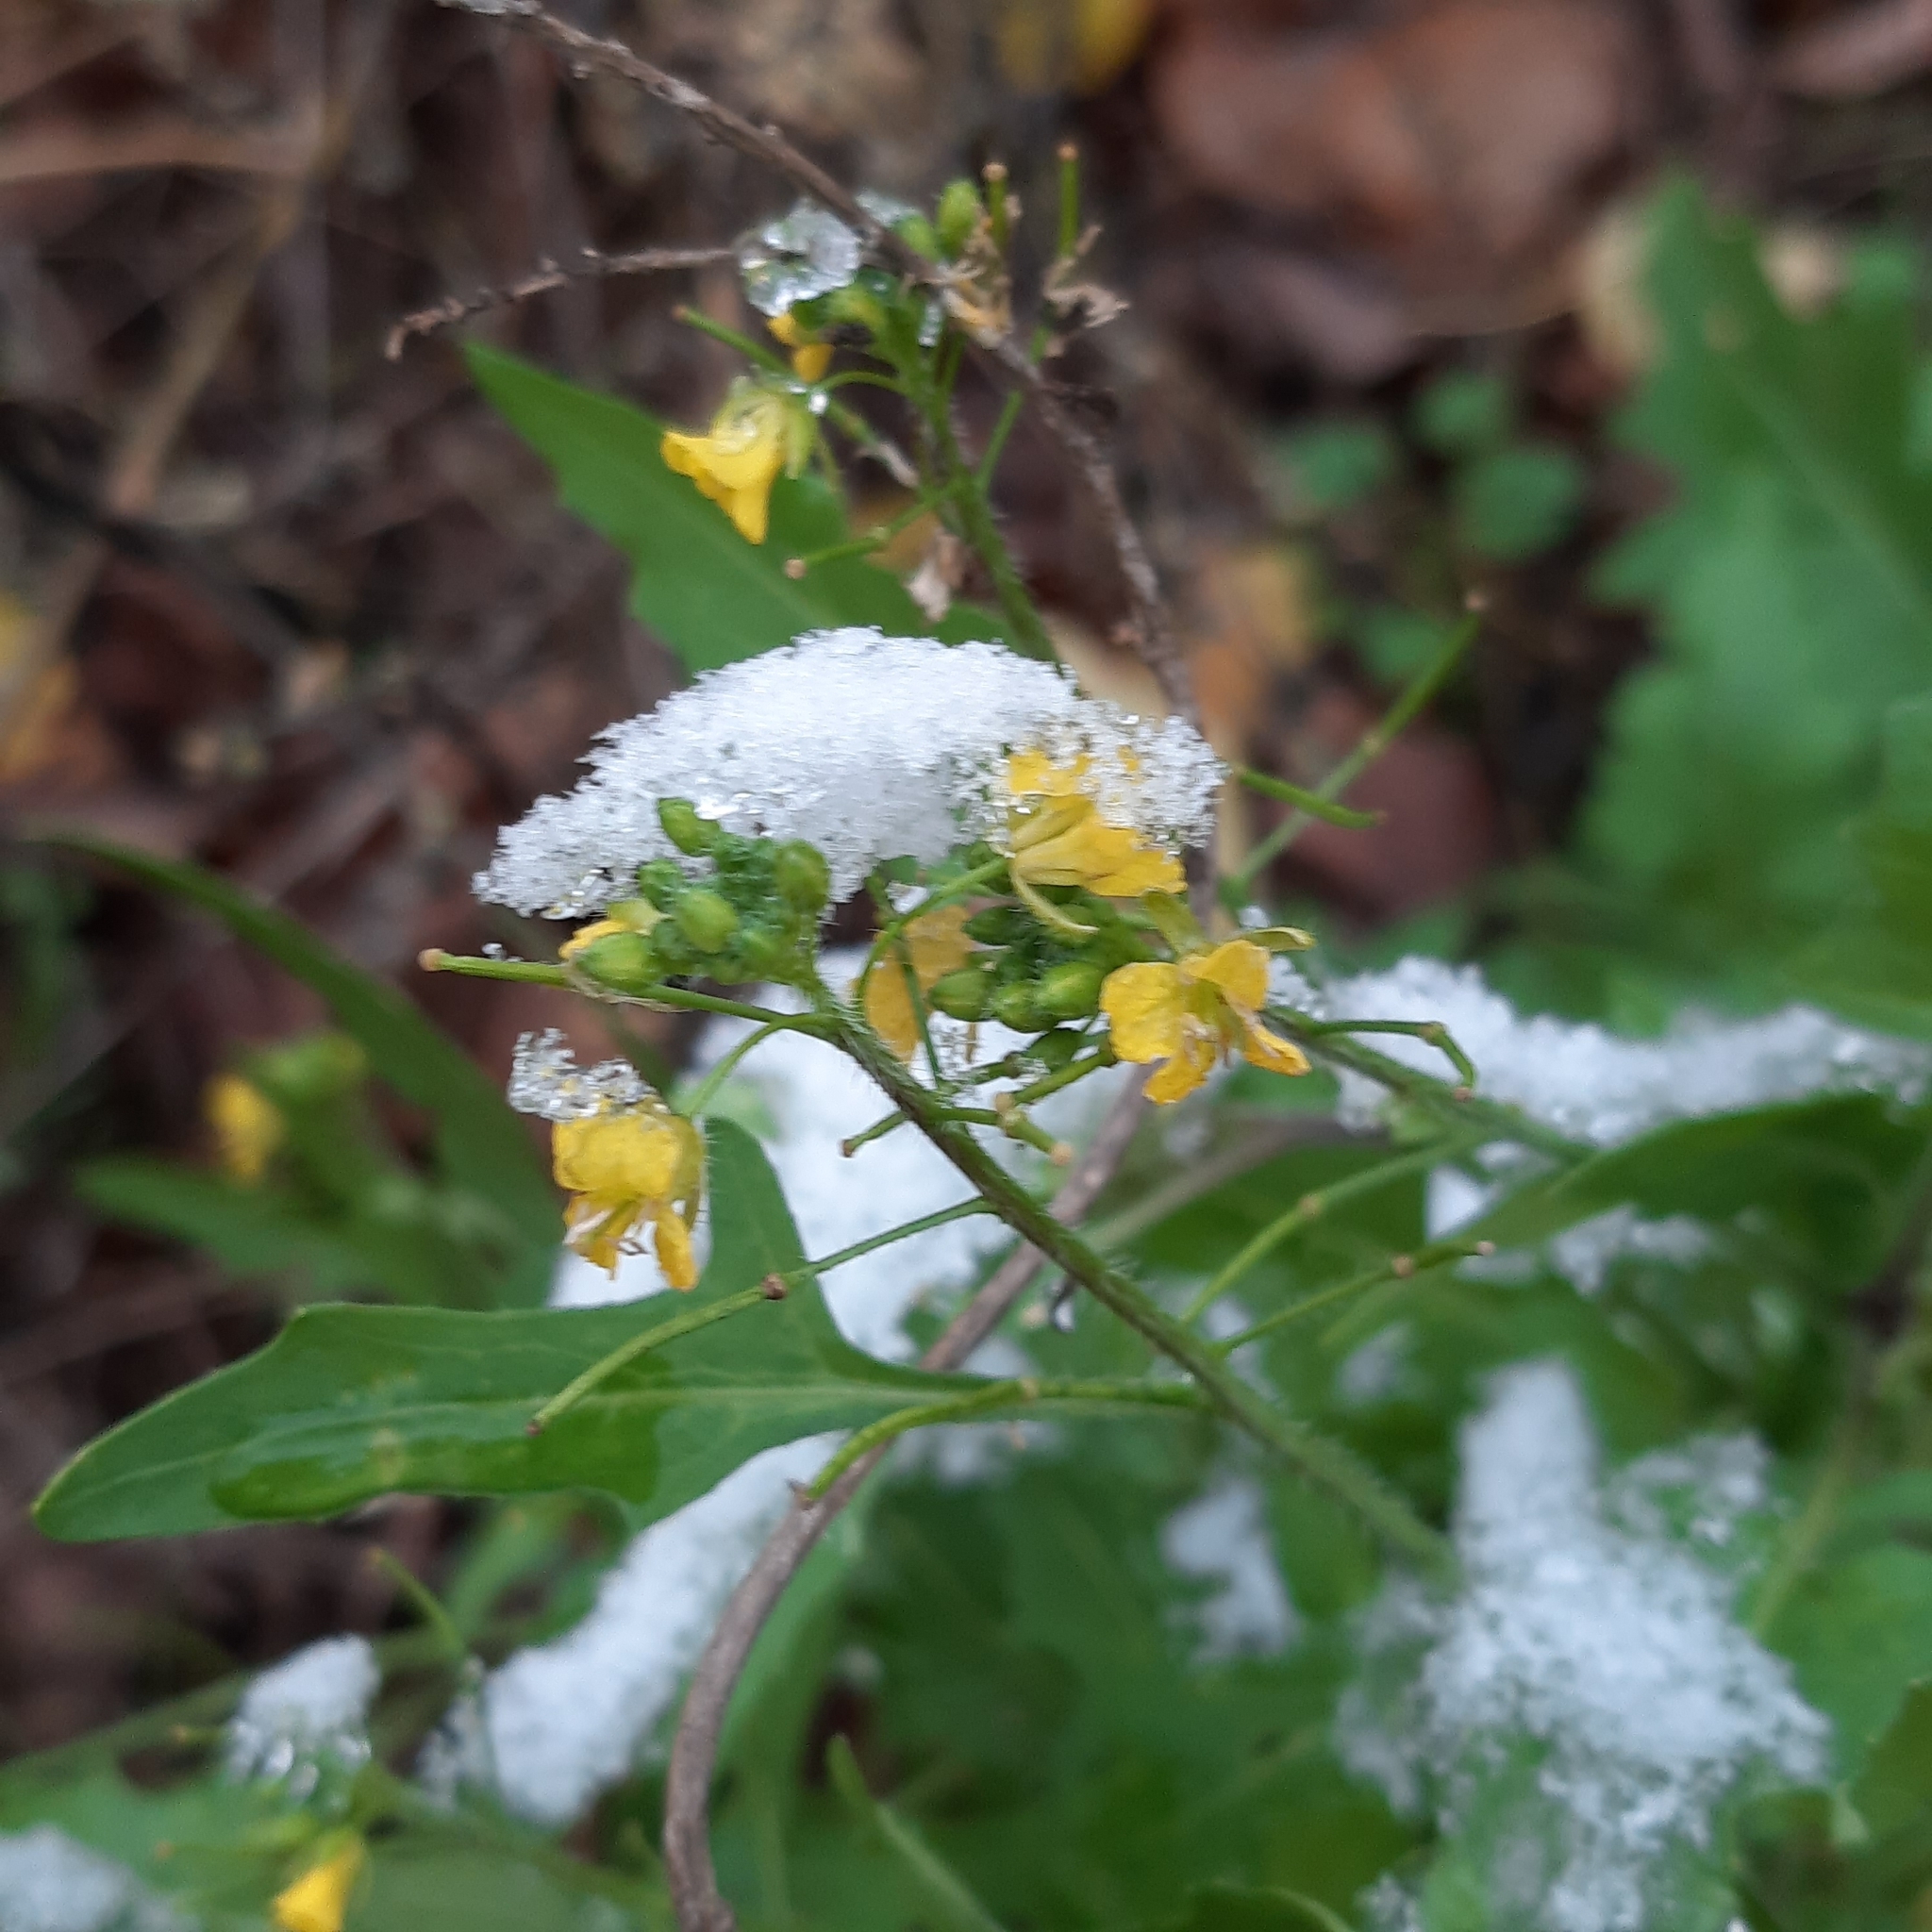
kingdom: Plantae
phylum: Tracheophyta
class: Magnoliopsida
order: Brassicales
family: Brassicaceae
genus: Sisymbrium
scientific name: Sisymbrium loeselii
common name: False london-rocket
